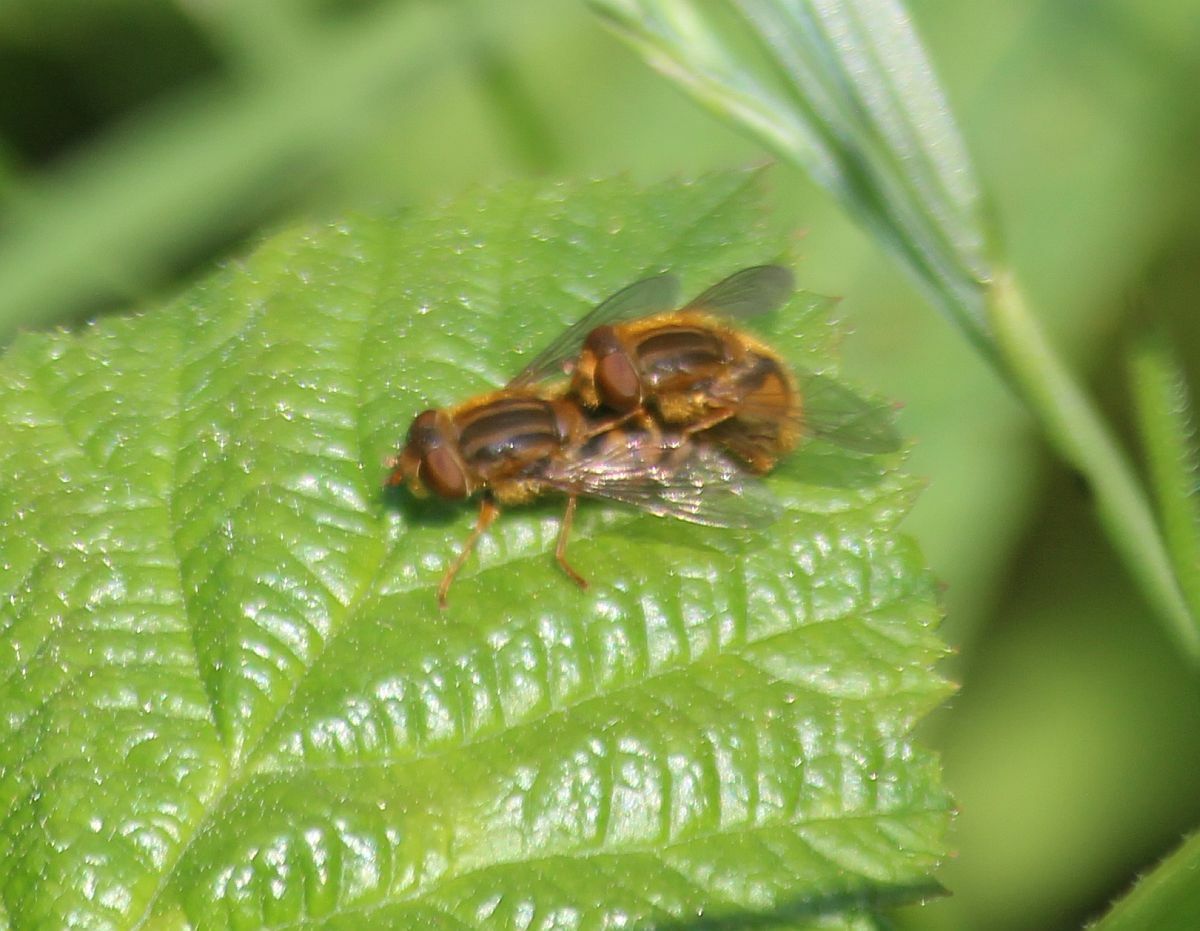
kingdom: Animalia
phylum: Arthropoda
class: Insecta
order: Diptera
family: Syrphidae
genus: Parhelophilus
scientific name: Parhelophilus
